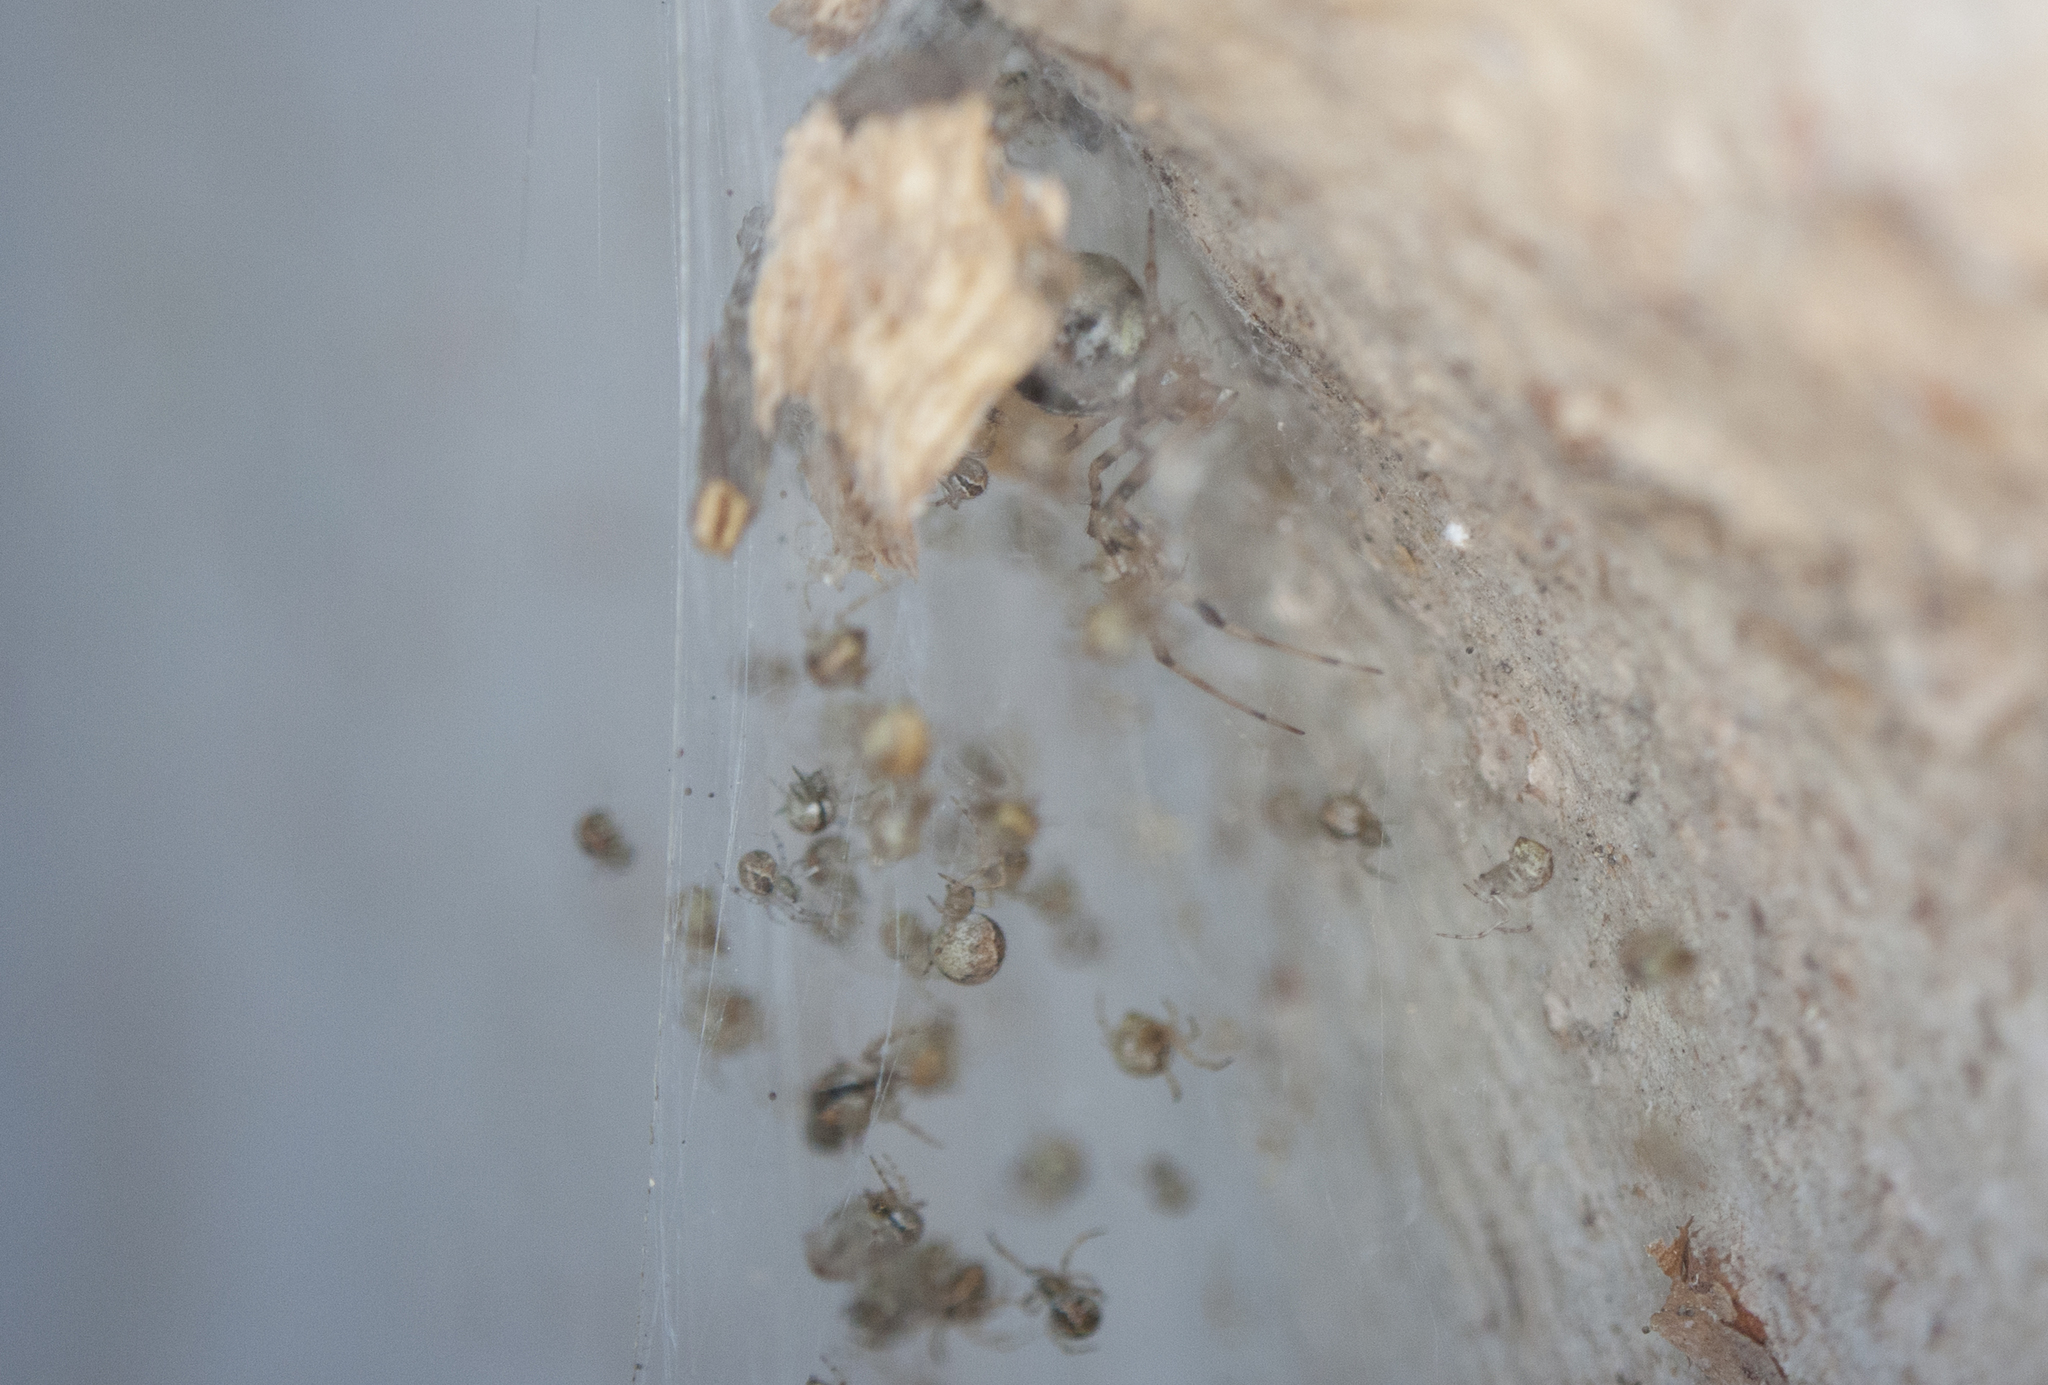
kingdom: Animalia
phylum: Arthropoda
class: Arachnida
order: Araneae
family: Theridiidae
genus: Cryptachaea
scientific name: Cryptachaea veruculata
